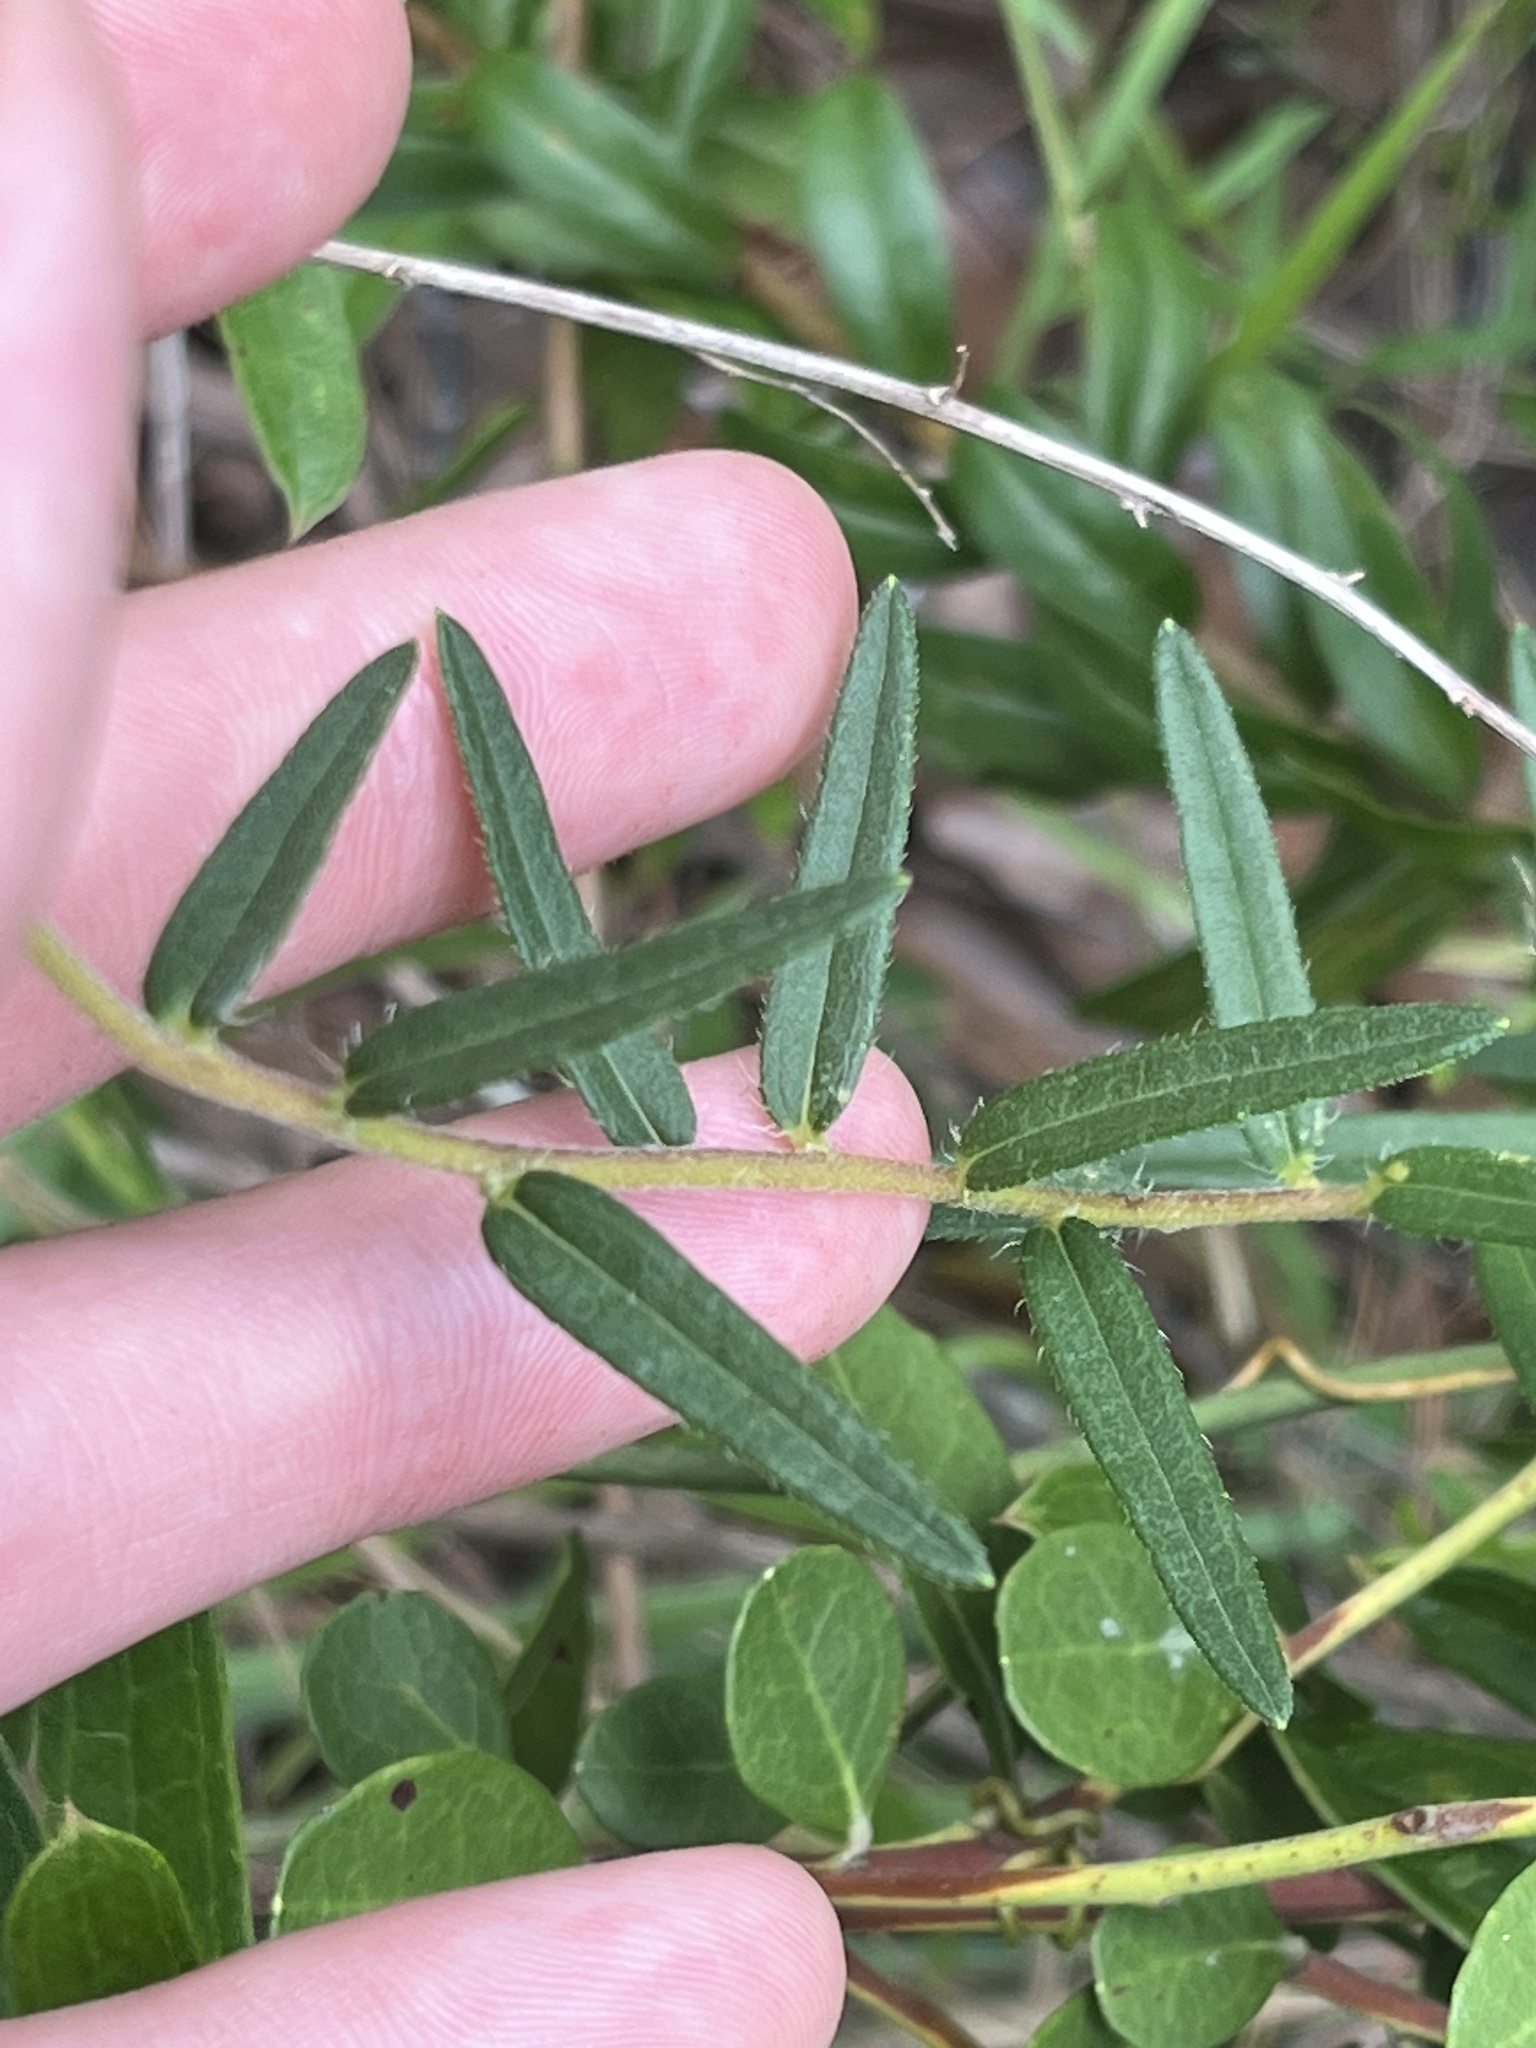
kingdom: Plantae
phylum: Tracheophyta
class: Magnoliopsida
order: Asterales
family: Asteraceae
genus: Phoebanthus
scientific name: Phoebanthus grandiflora
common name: Florida false sunflower
